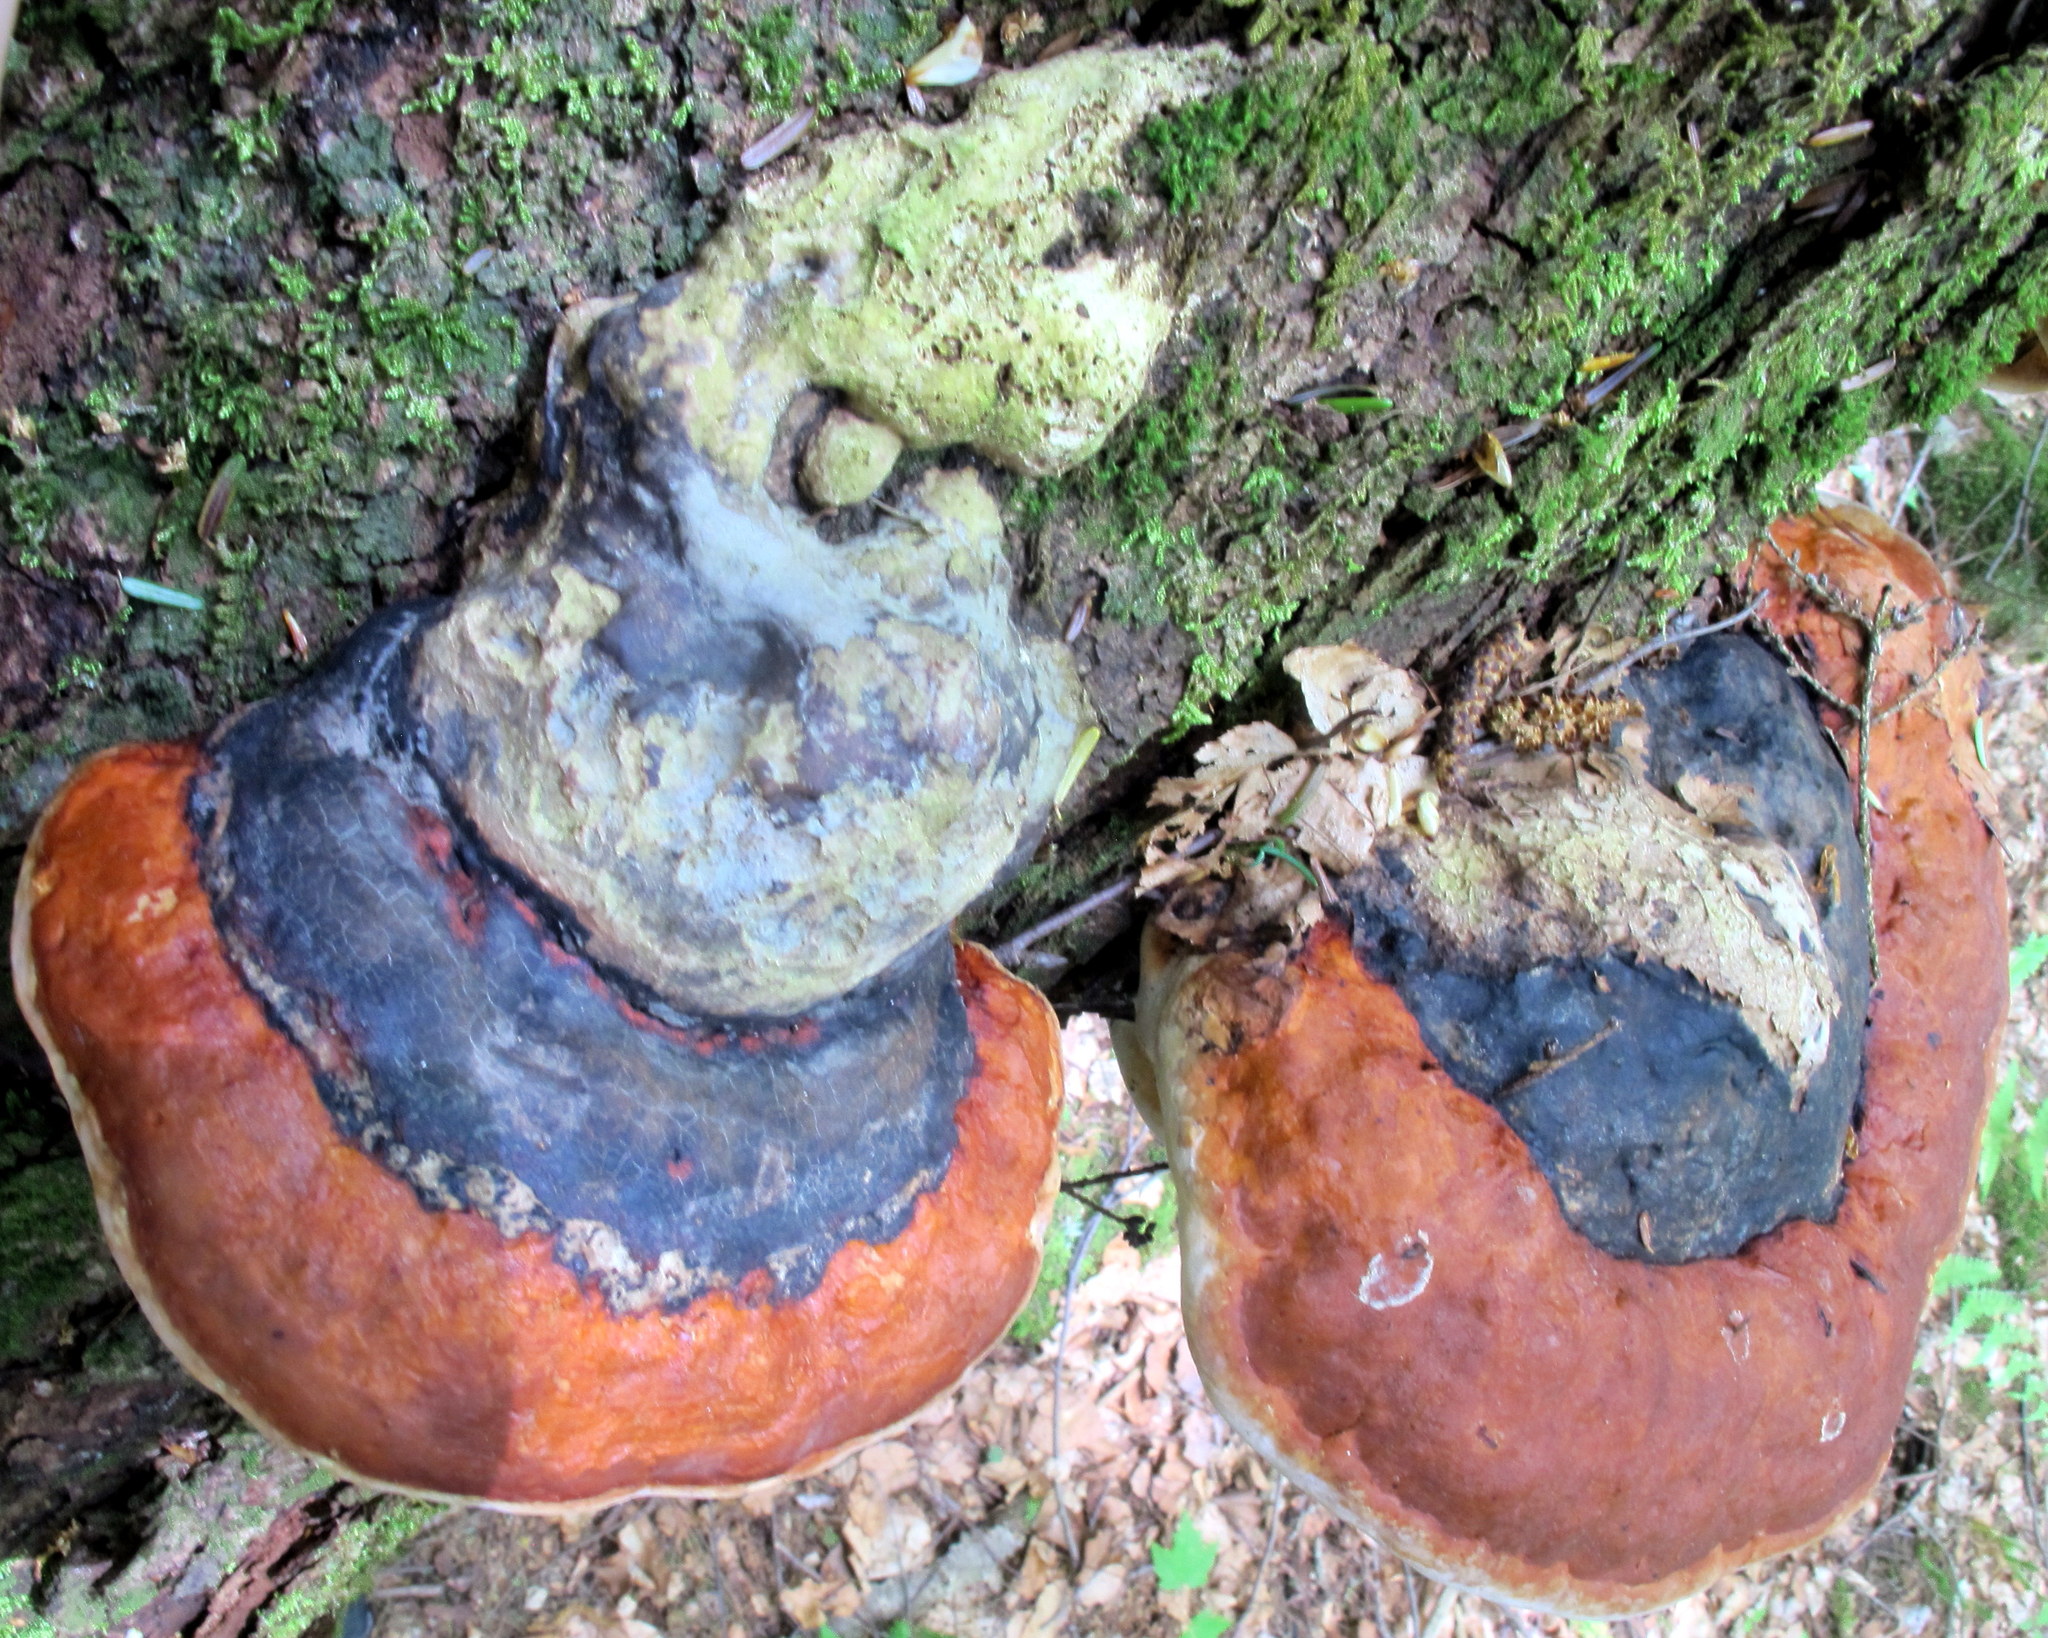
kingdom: Fungi
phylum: Basidiomycota
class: Agaricomycetes
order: Polyporales
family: Fomitopsidaceae
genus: Fomitopsis
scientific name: Fomitopsis mounceae
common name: Northern red belt
